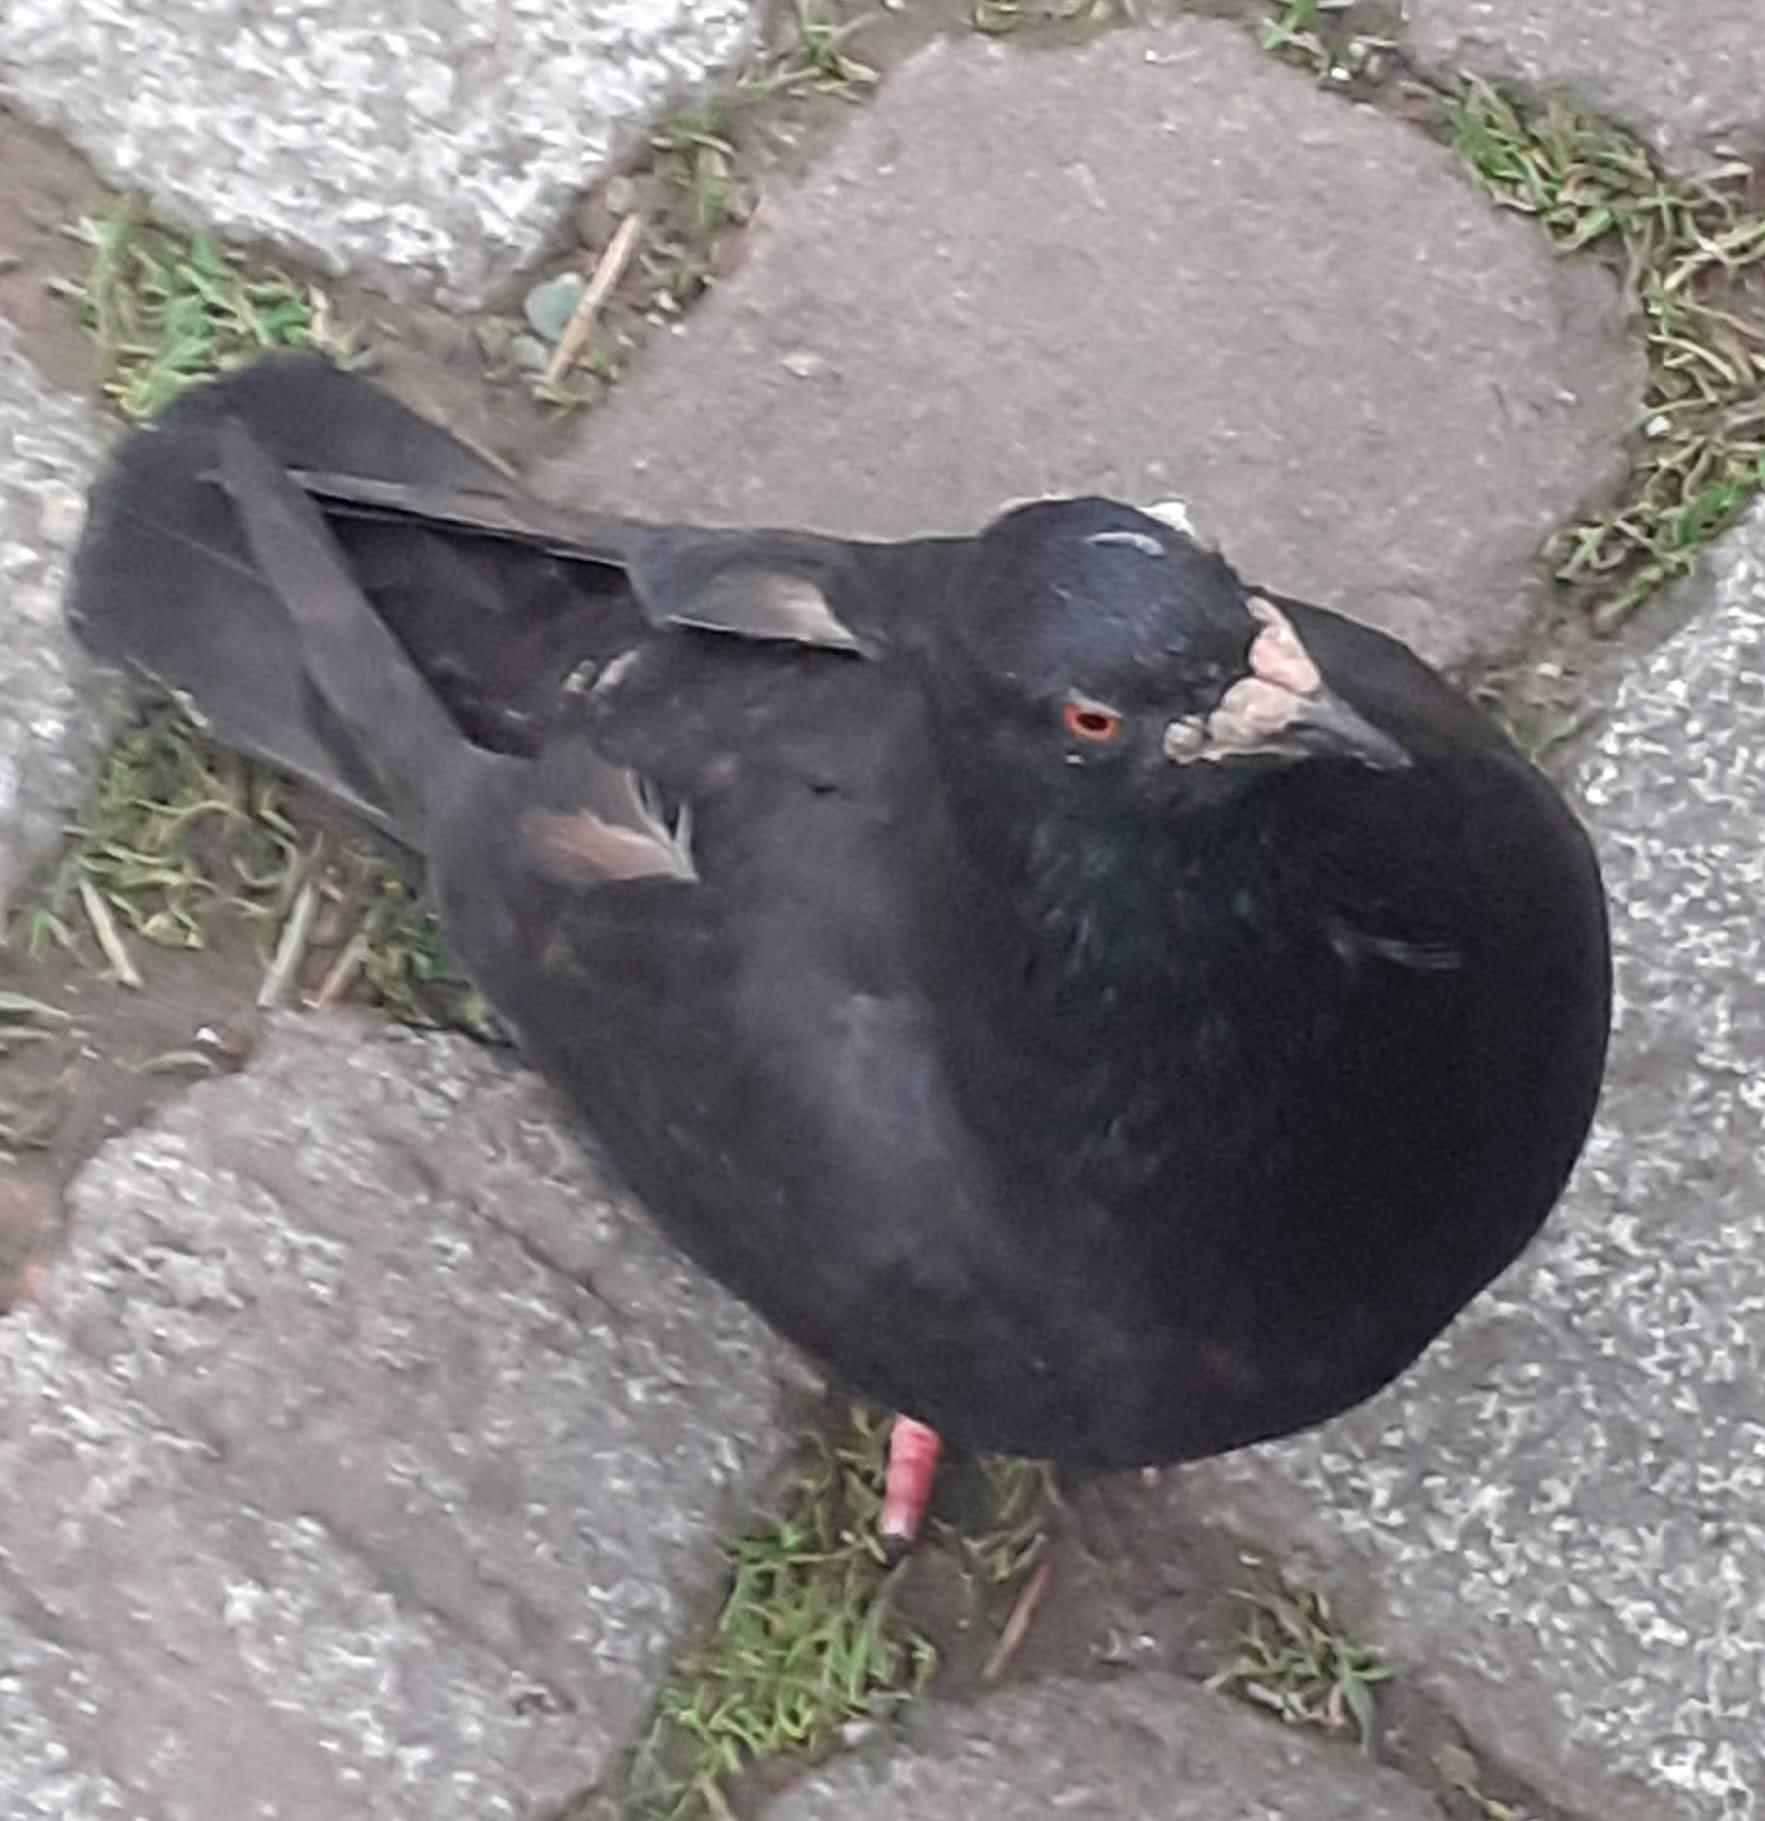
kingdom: Animalia
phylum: Chordata
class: Aves
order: Columbiformes
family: Columbidae
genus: Columba
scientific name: Columba livia
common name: Rock pigeon
